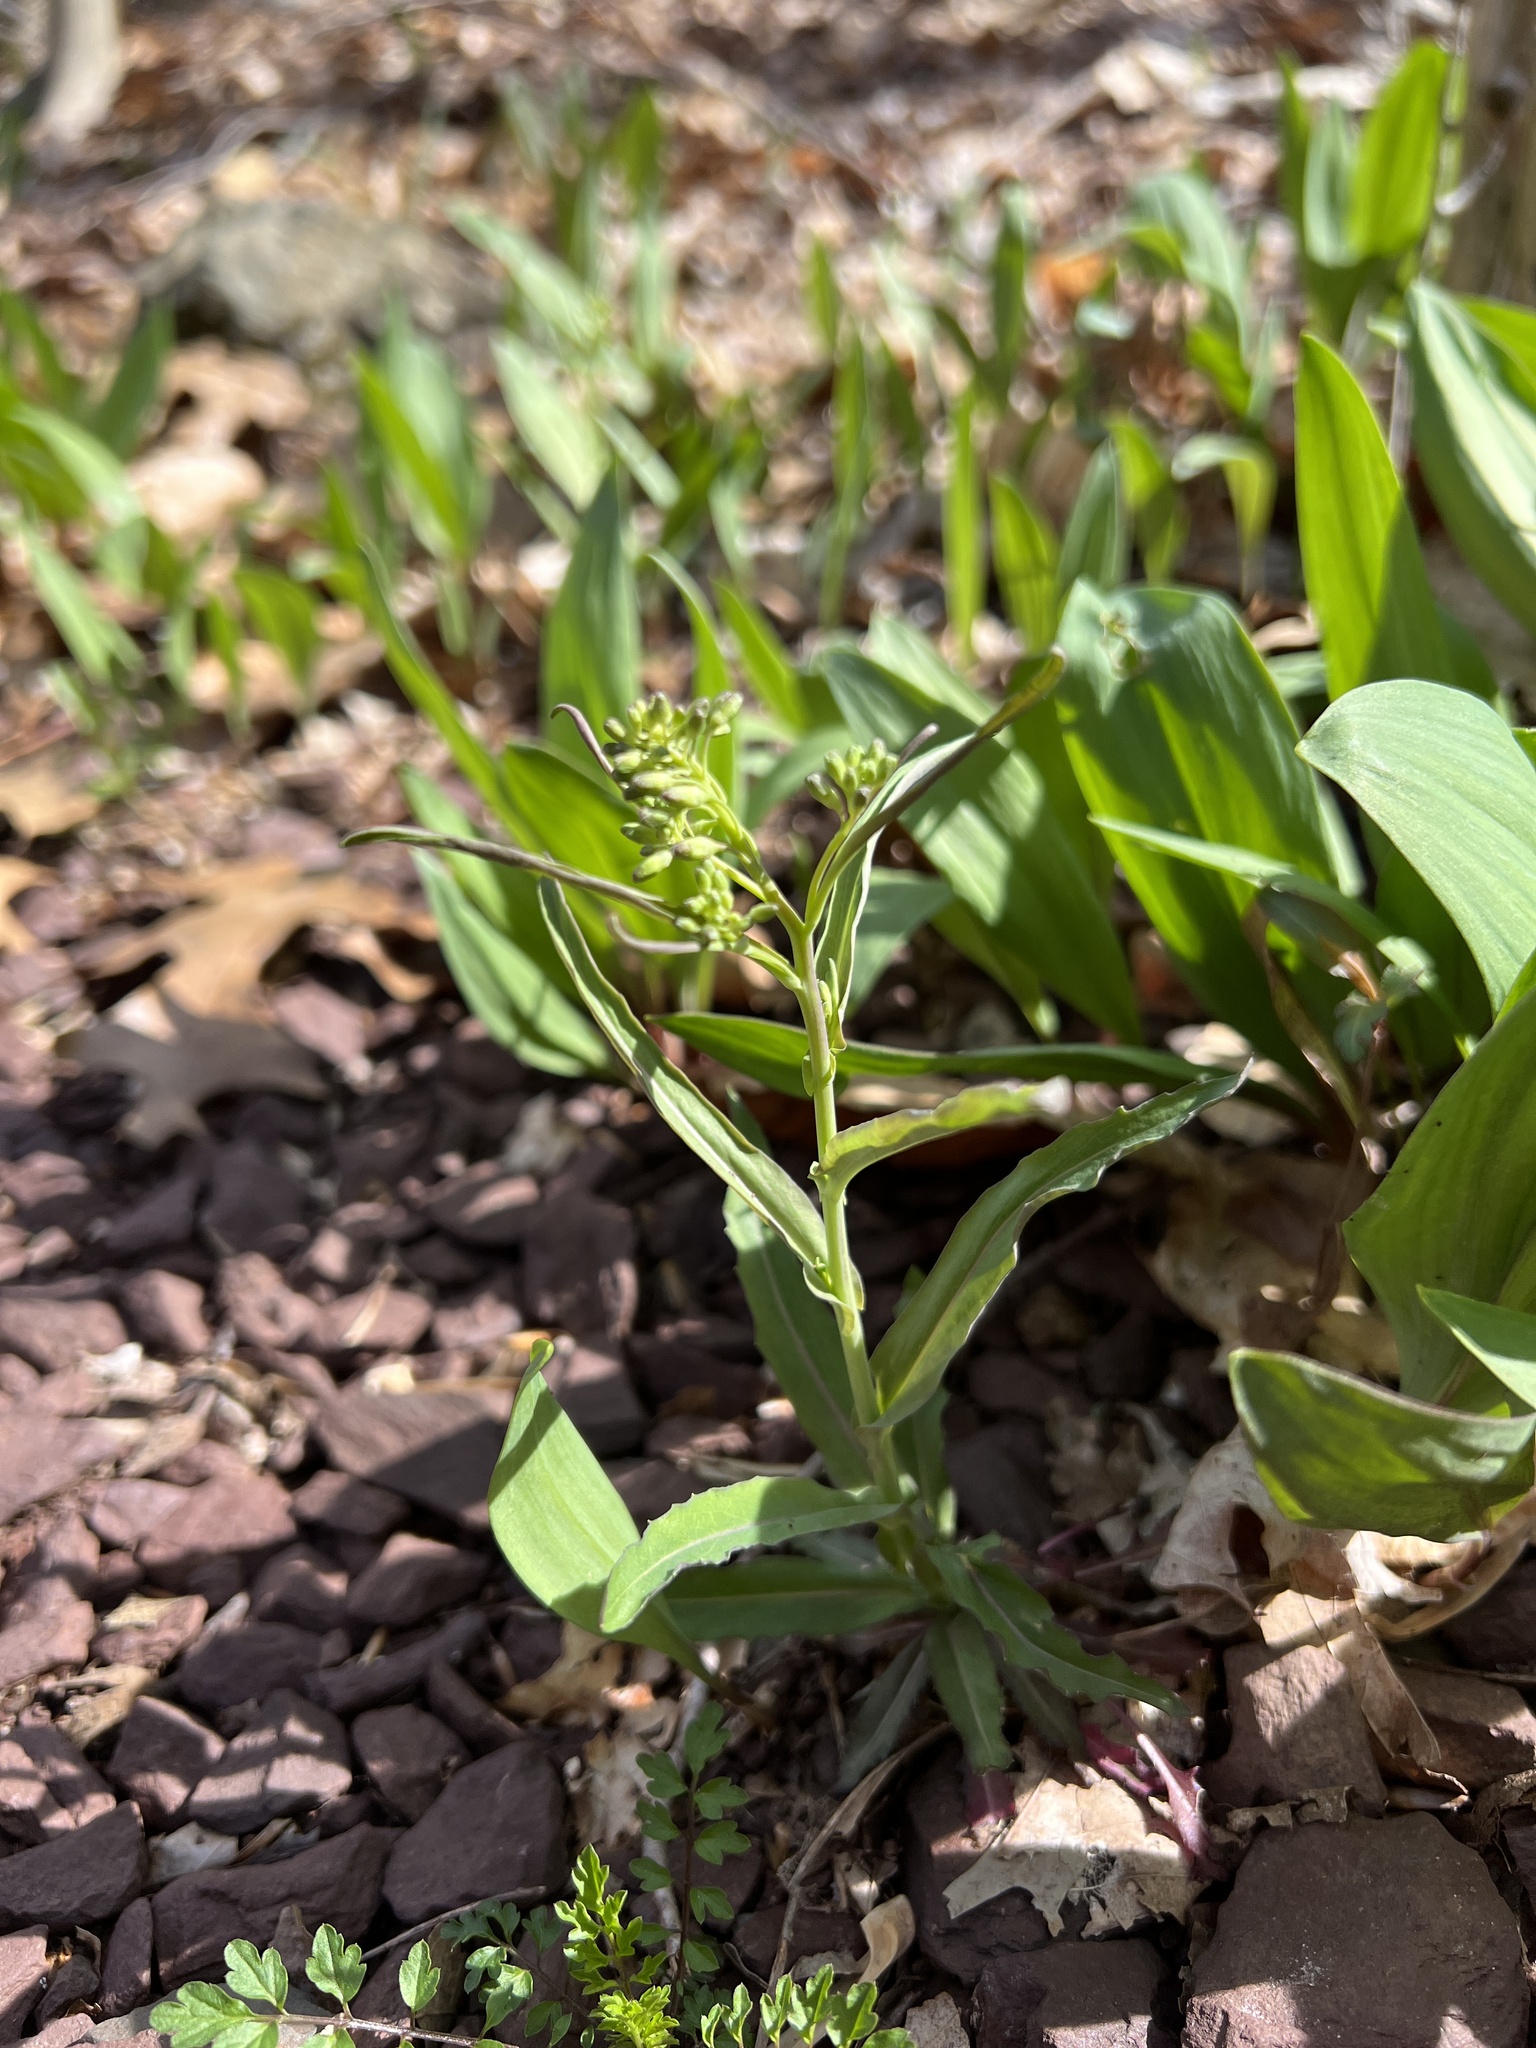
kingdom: Plantae
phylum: Tracheophyta
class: Magnoliopsida
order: Brassicales
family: Brassicaceae
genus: Borodinia
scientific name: Borodinia laevigata
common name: Smooth rockcress
